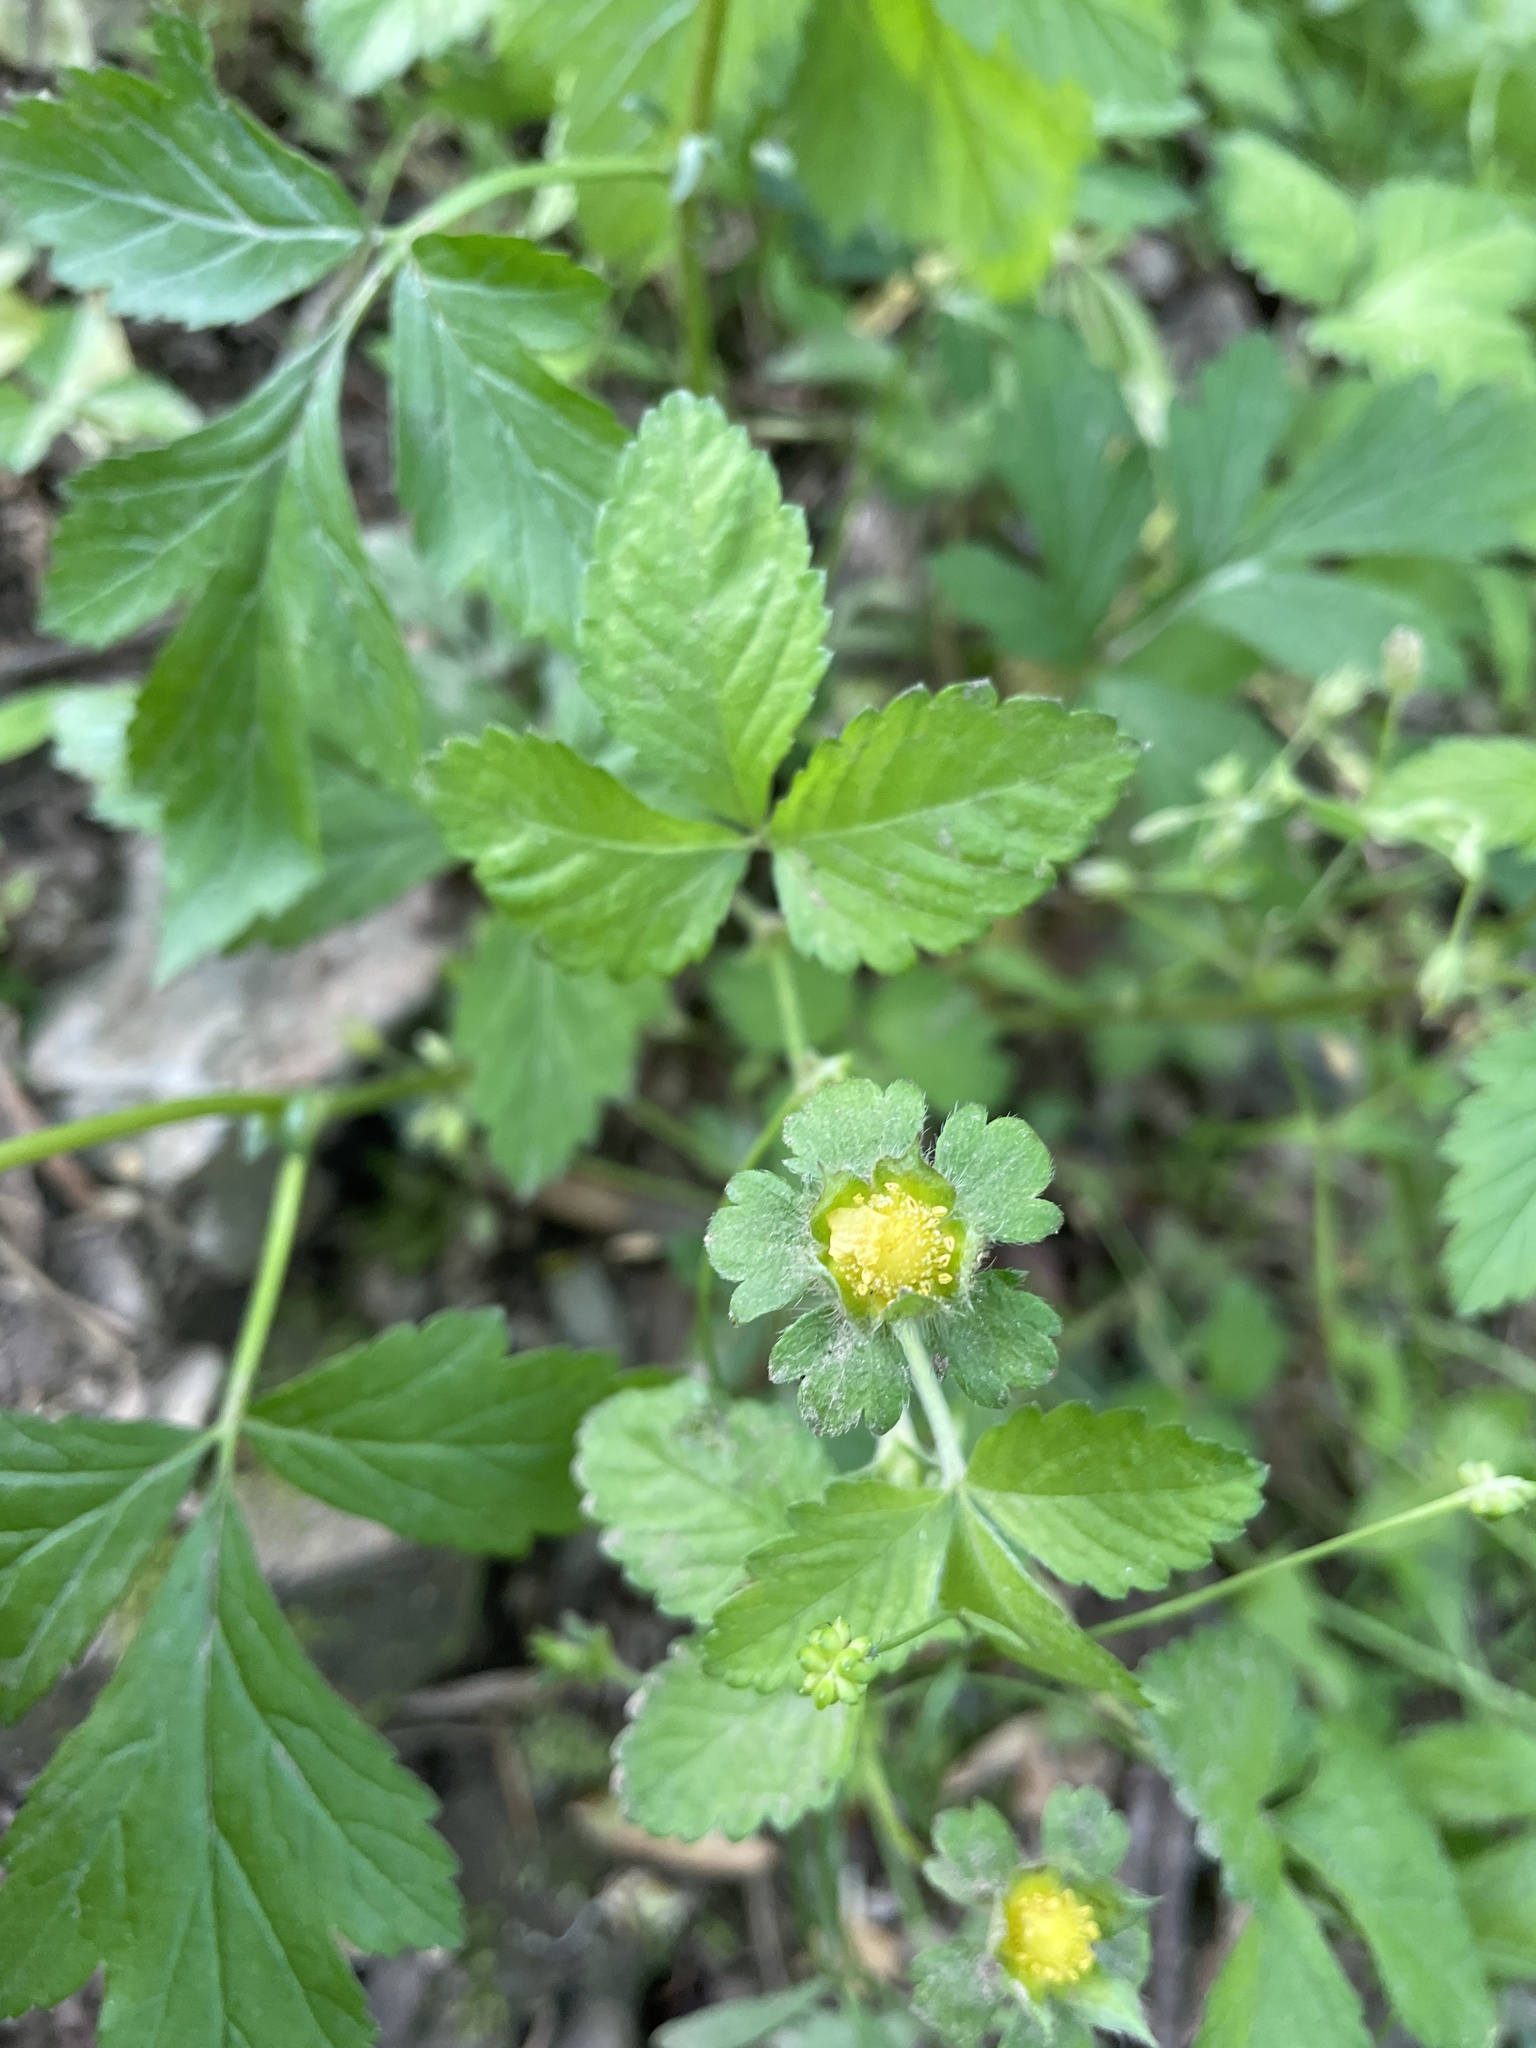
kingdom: Plantae
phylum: Tracheophyta
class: Magnoliopsida
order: Rosales
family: Rosaceae
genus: Potentilla
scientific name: Potentilla indica
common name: Yellow-flowered strawberry
